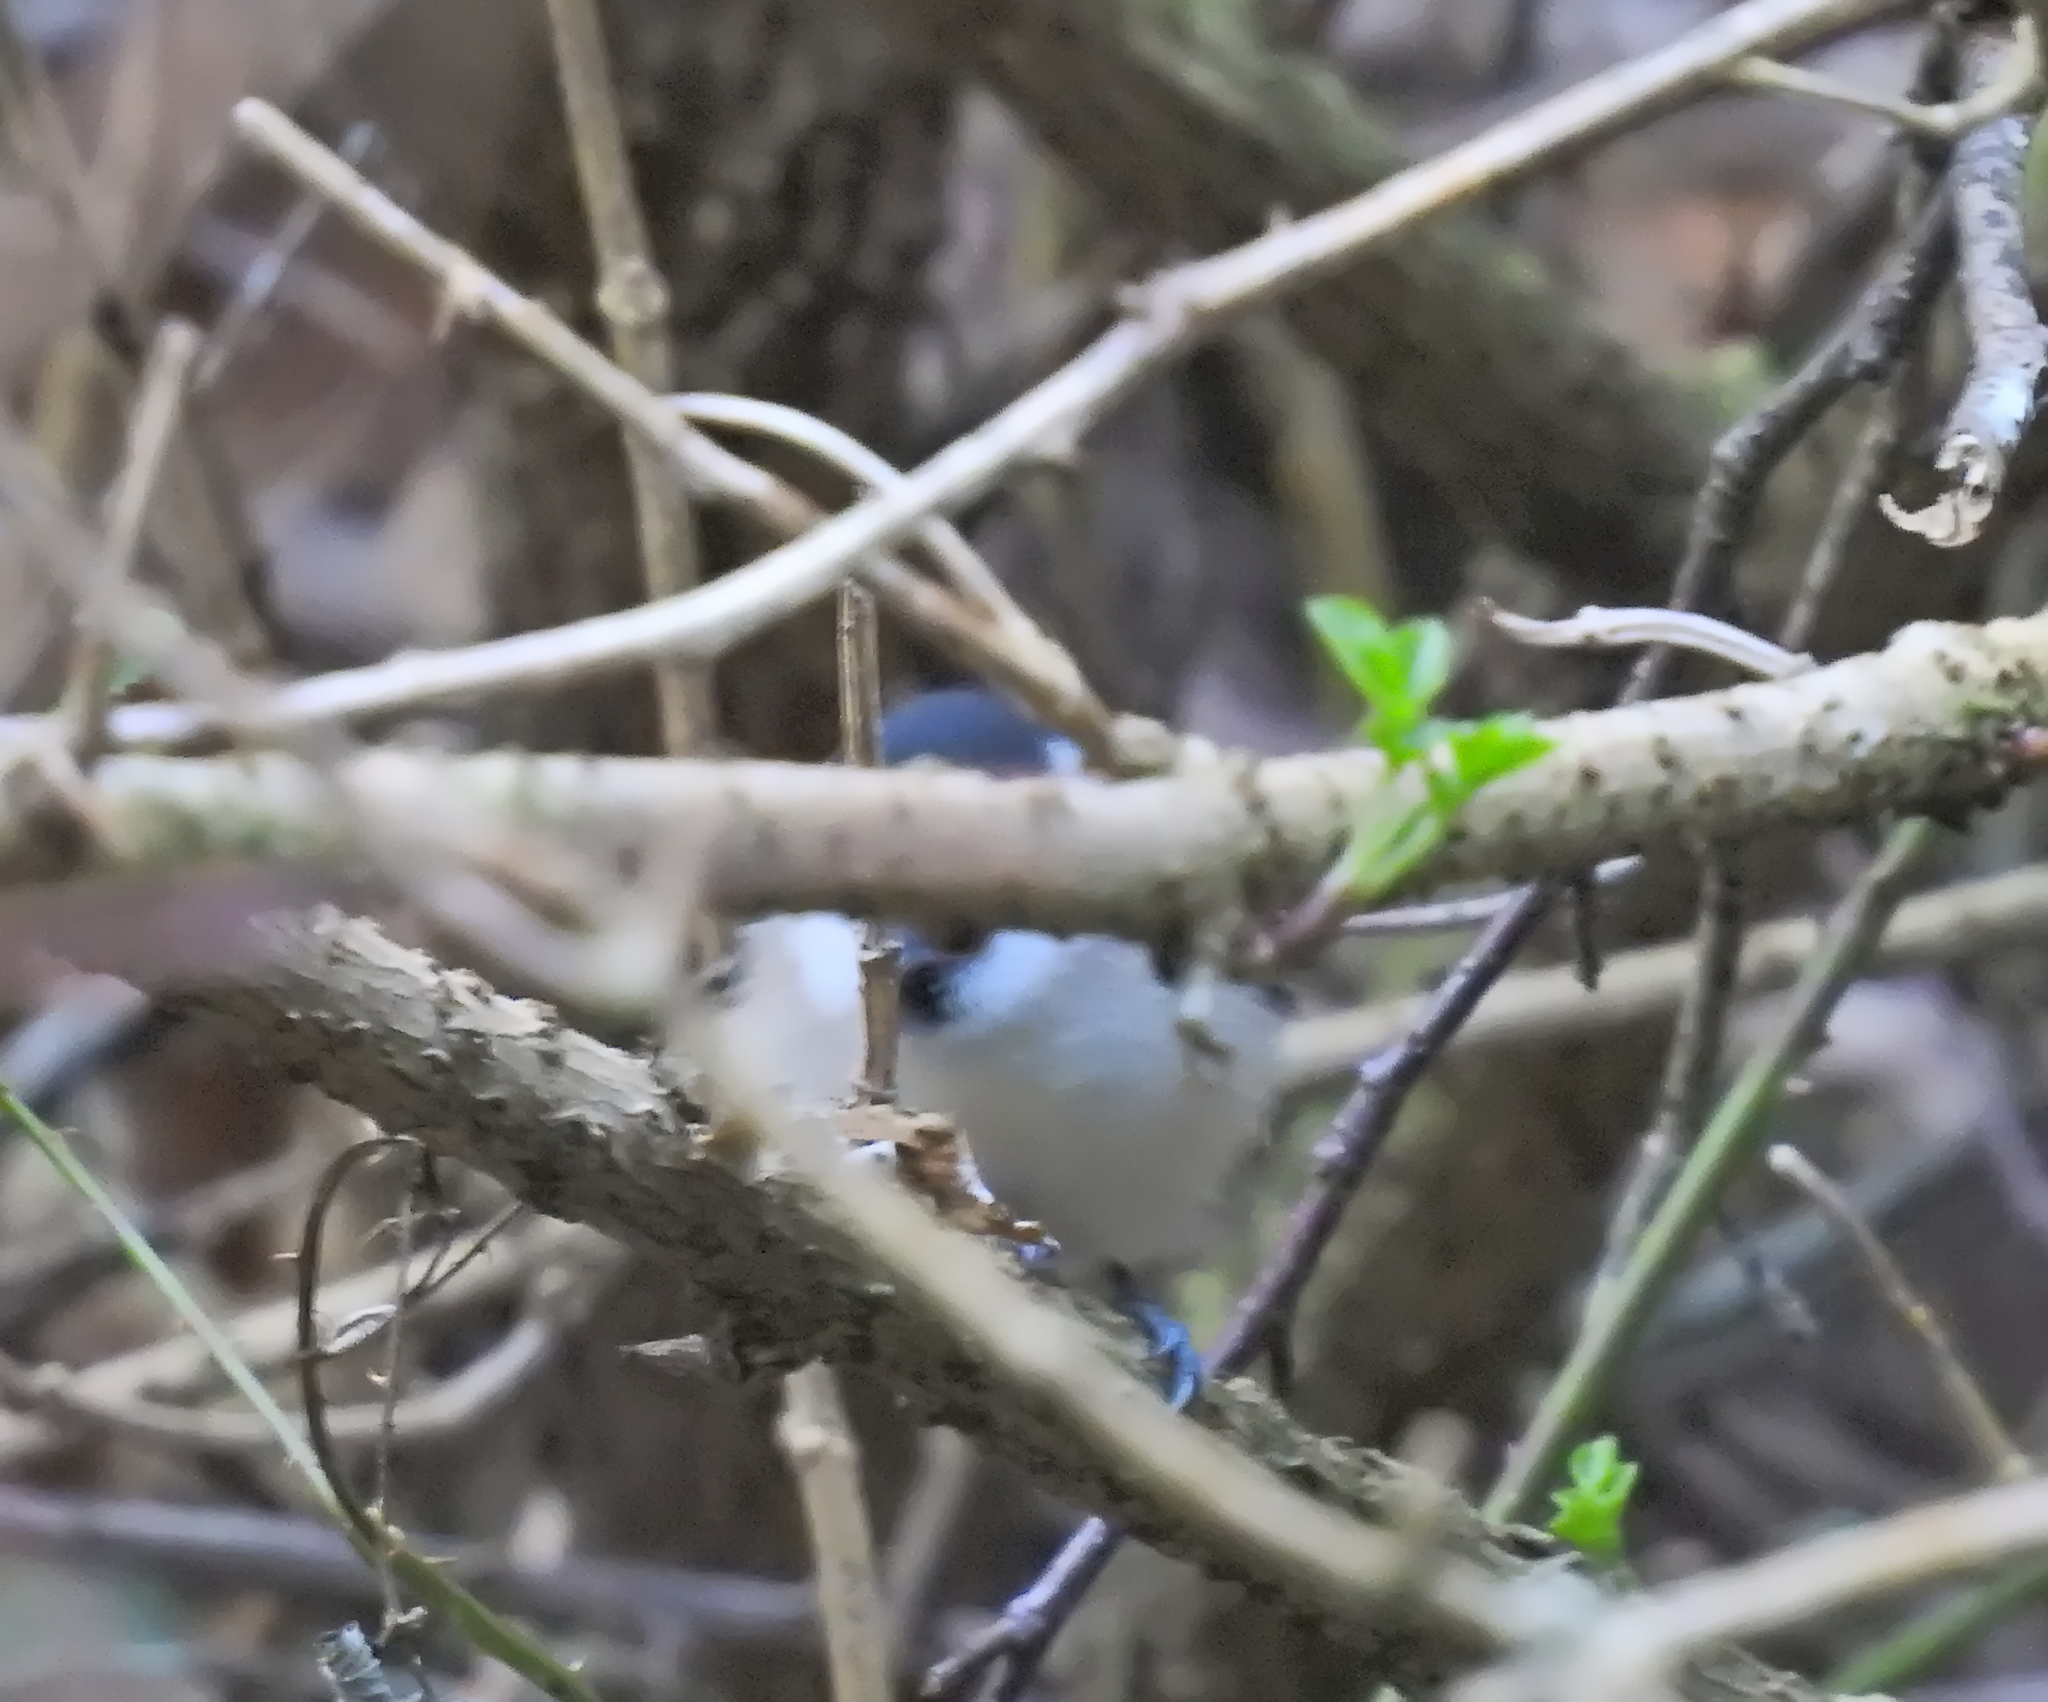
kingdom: Animalia
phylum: Chordata
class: Aves
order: Passeriformes
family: Paridae
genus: Poecile
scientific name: Poecile palustris
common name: Marsh tit
